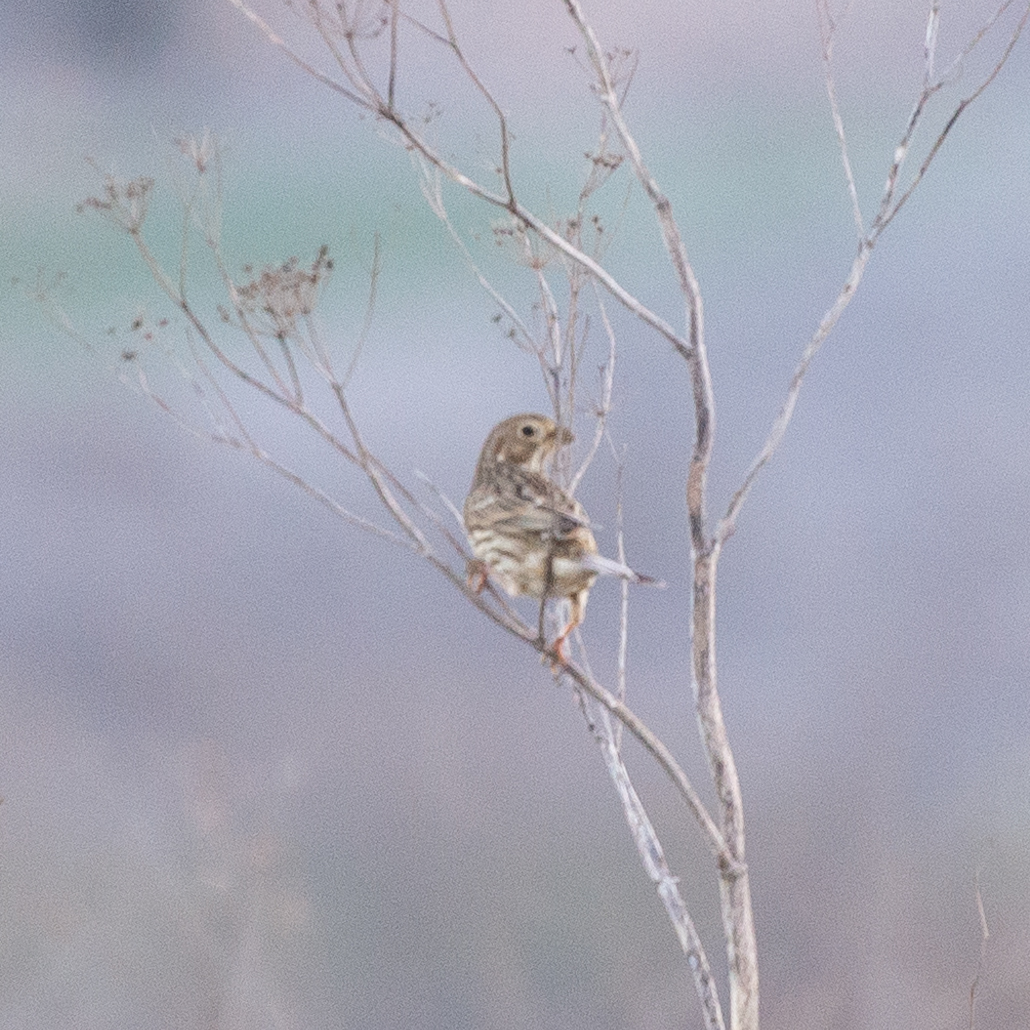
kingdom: Animalia
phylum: Chordata
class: Aves
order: Passeriformes
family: Emberizidae
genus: Emberiza
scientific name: Emberiza calandra
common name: Corn bunting
